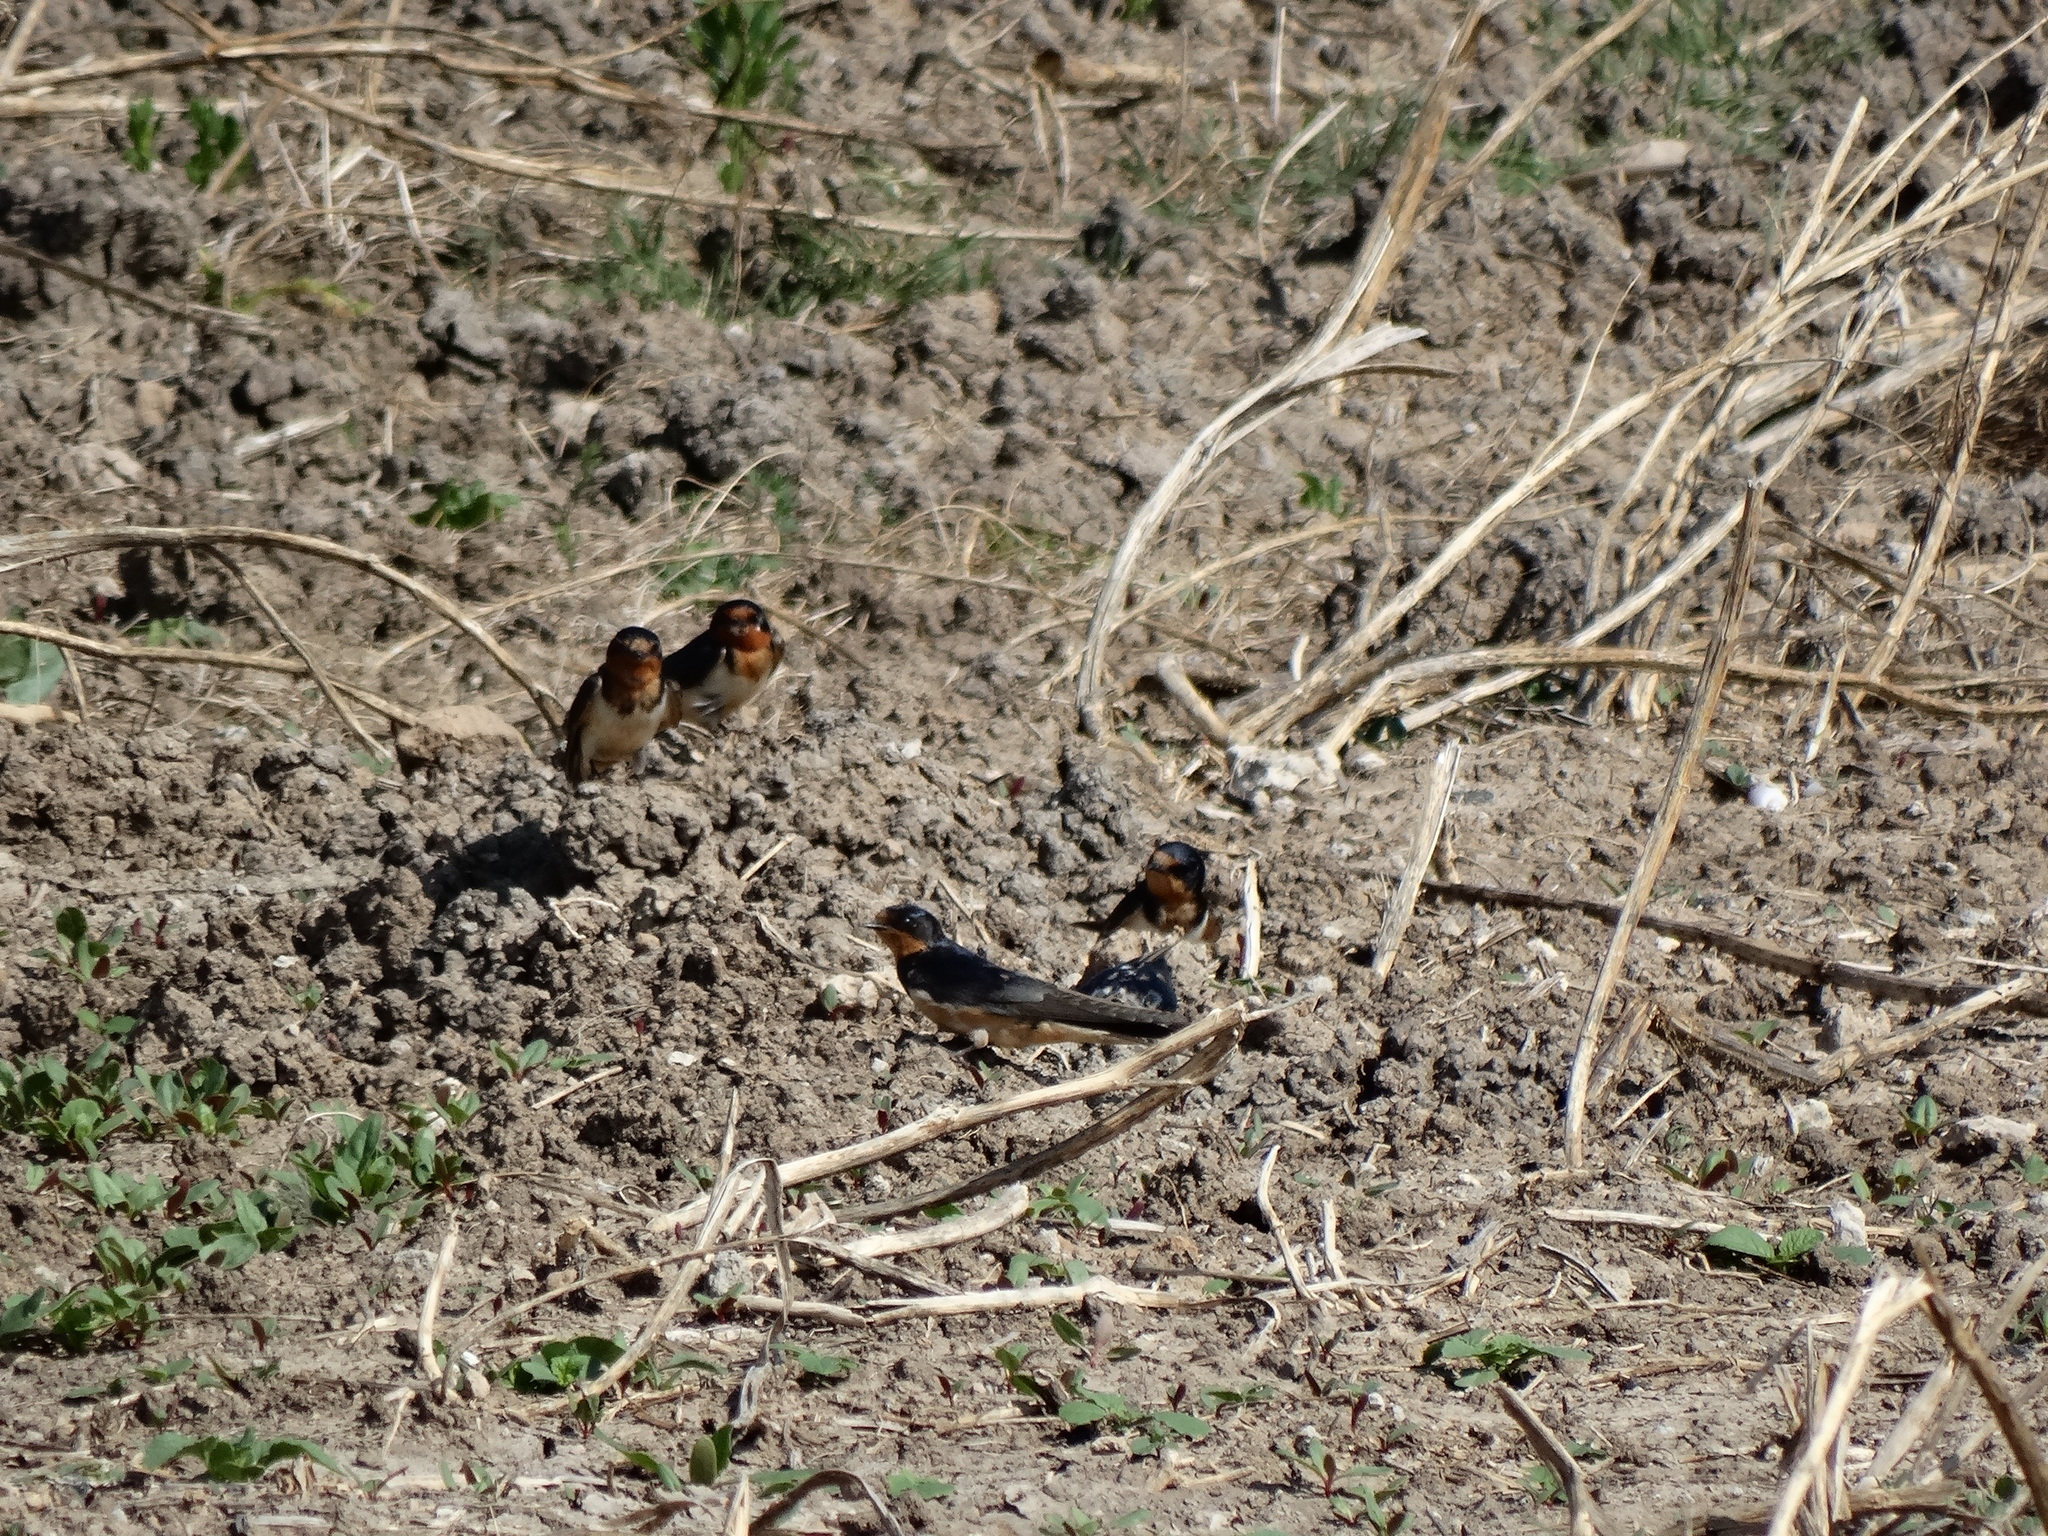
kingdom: Animalia
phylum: Chordata
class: Aves
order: Passeriformes
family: Hirundinidae
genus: Hirundo
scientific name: Hirundo rustica
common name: Barn swallow
